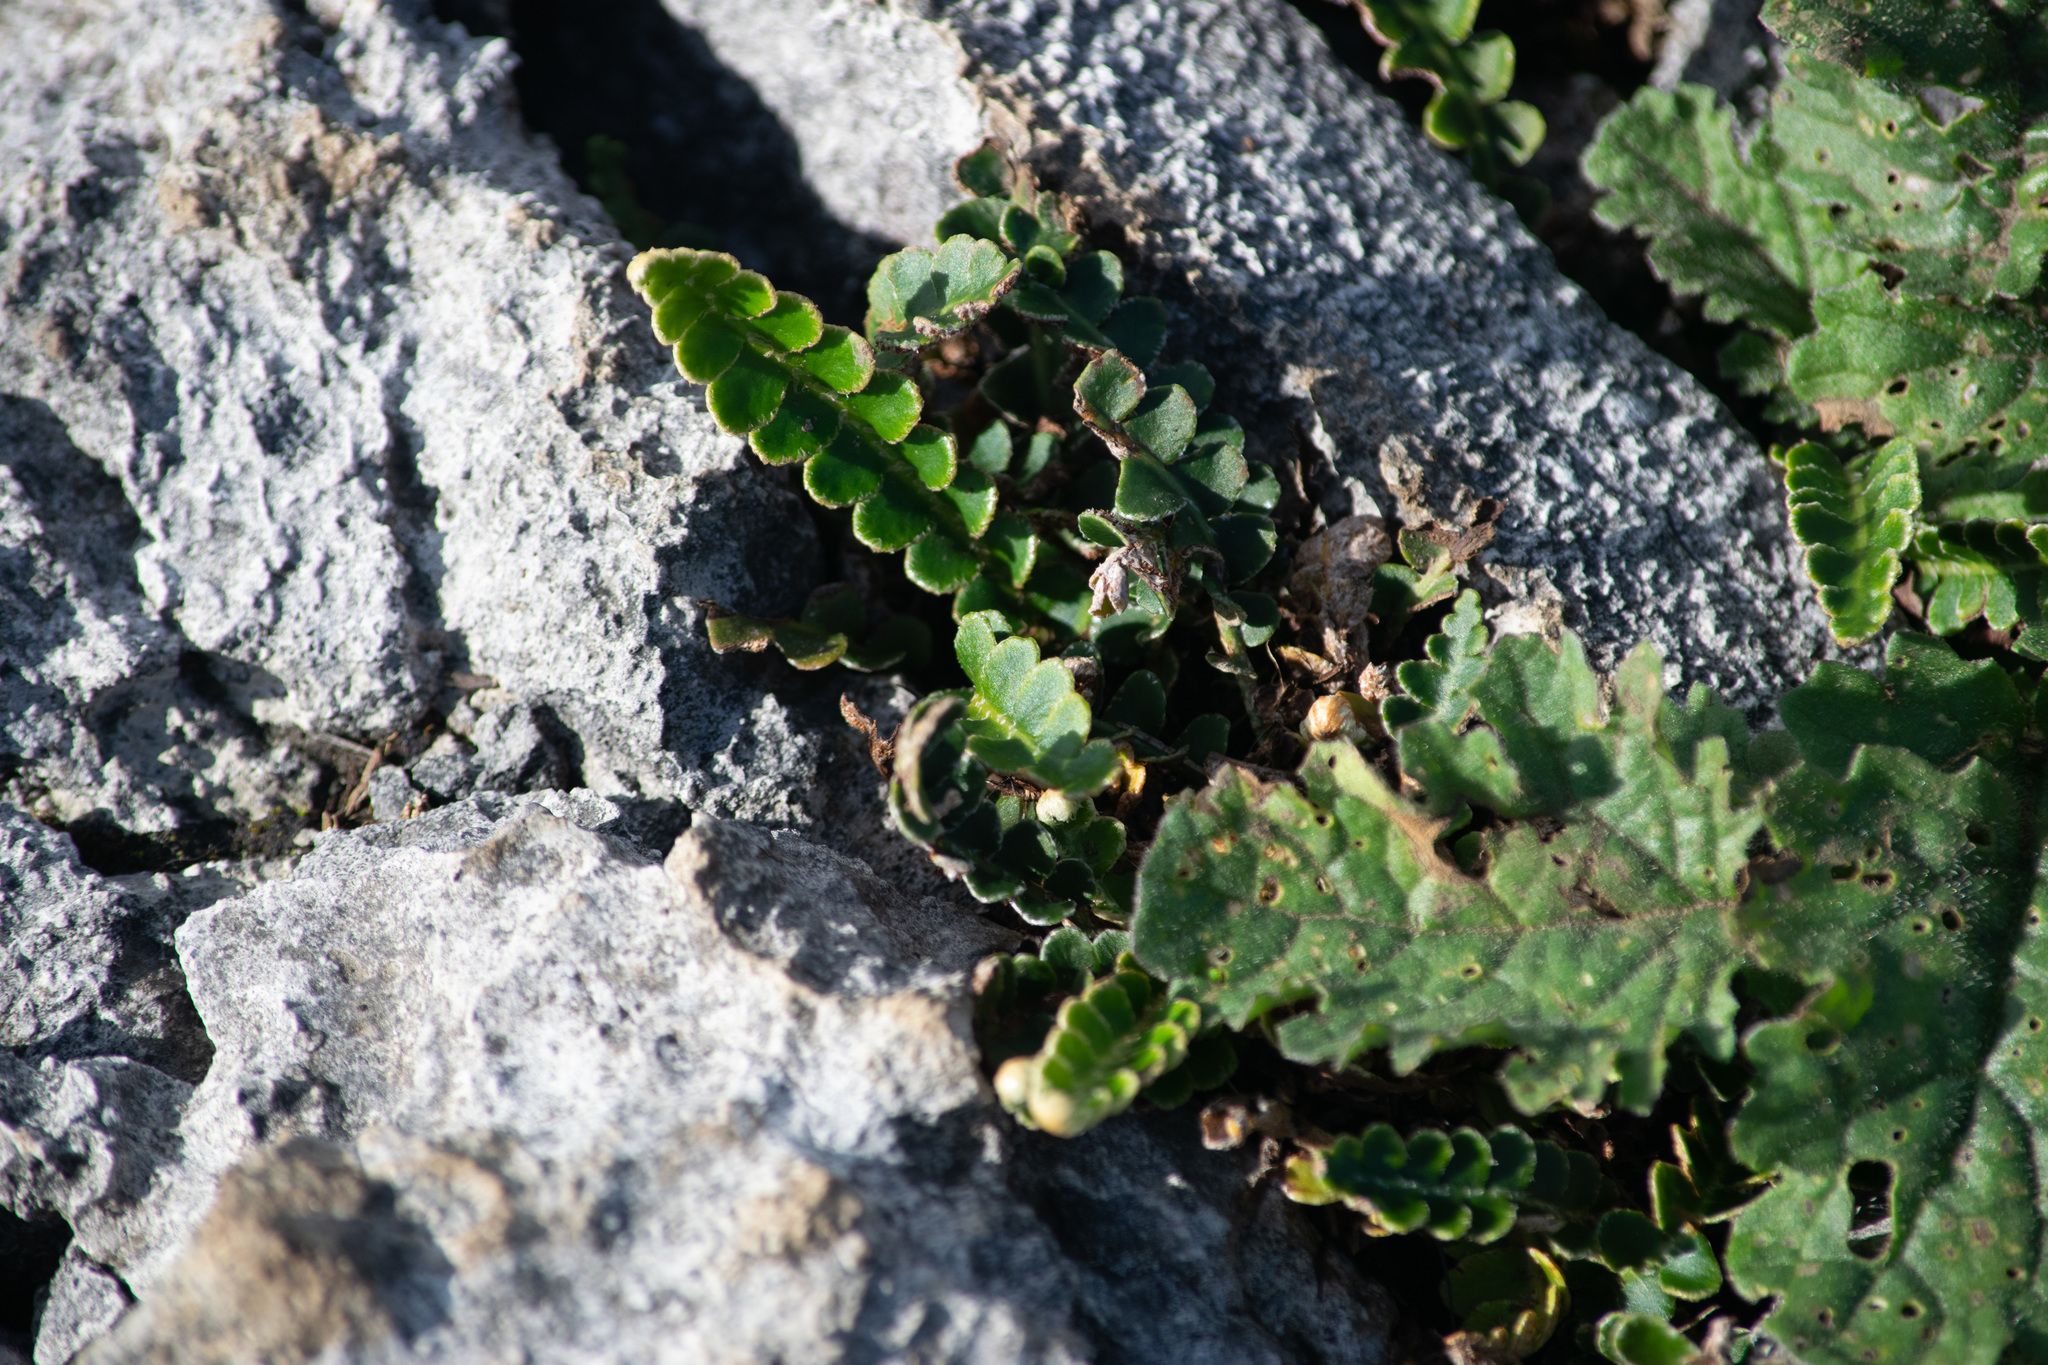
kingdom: Plantae
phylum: Tracheophyta
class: Polypodiopsida
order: Polypodiales
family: Aspleniaceae
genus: Asplenium
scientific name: Asplenium ceterach
